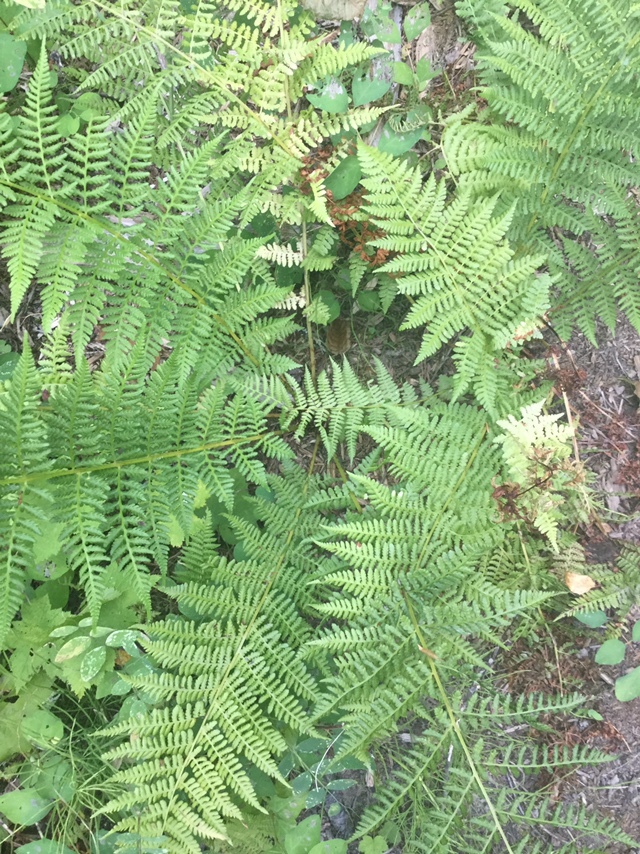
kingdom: Plantae
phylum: Tracheophyta
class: Polypodiopsida
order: Polypodiales
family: Athyriaceae
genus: Athyrium
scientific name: Athyrium cyclosorum
